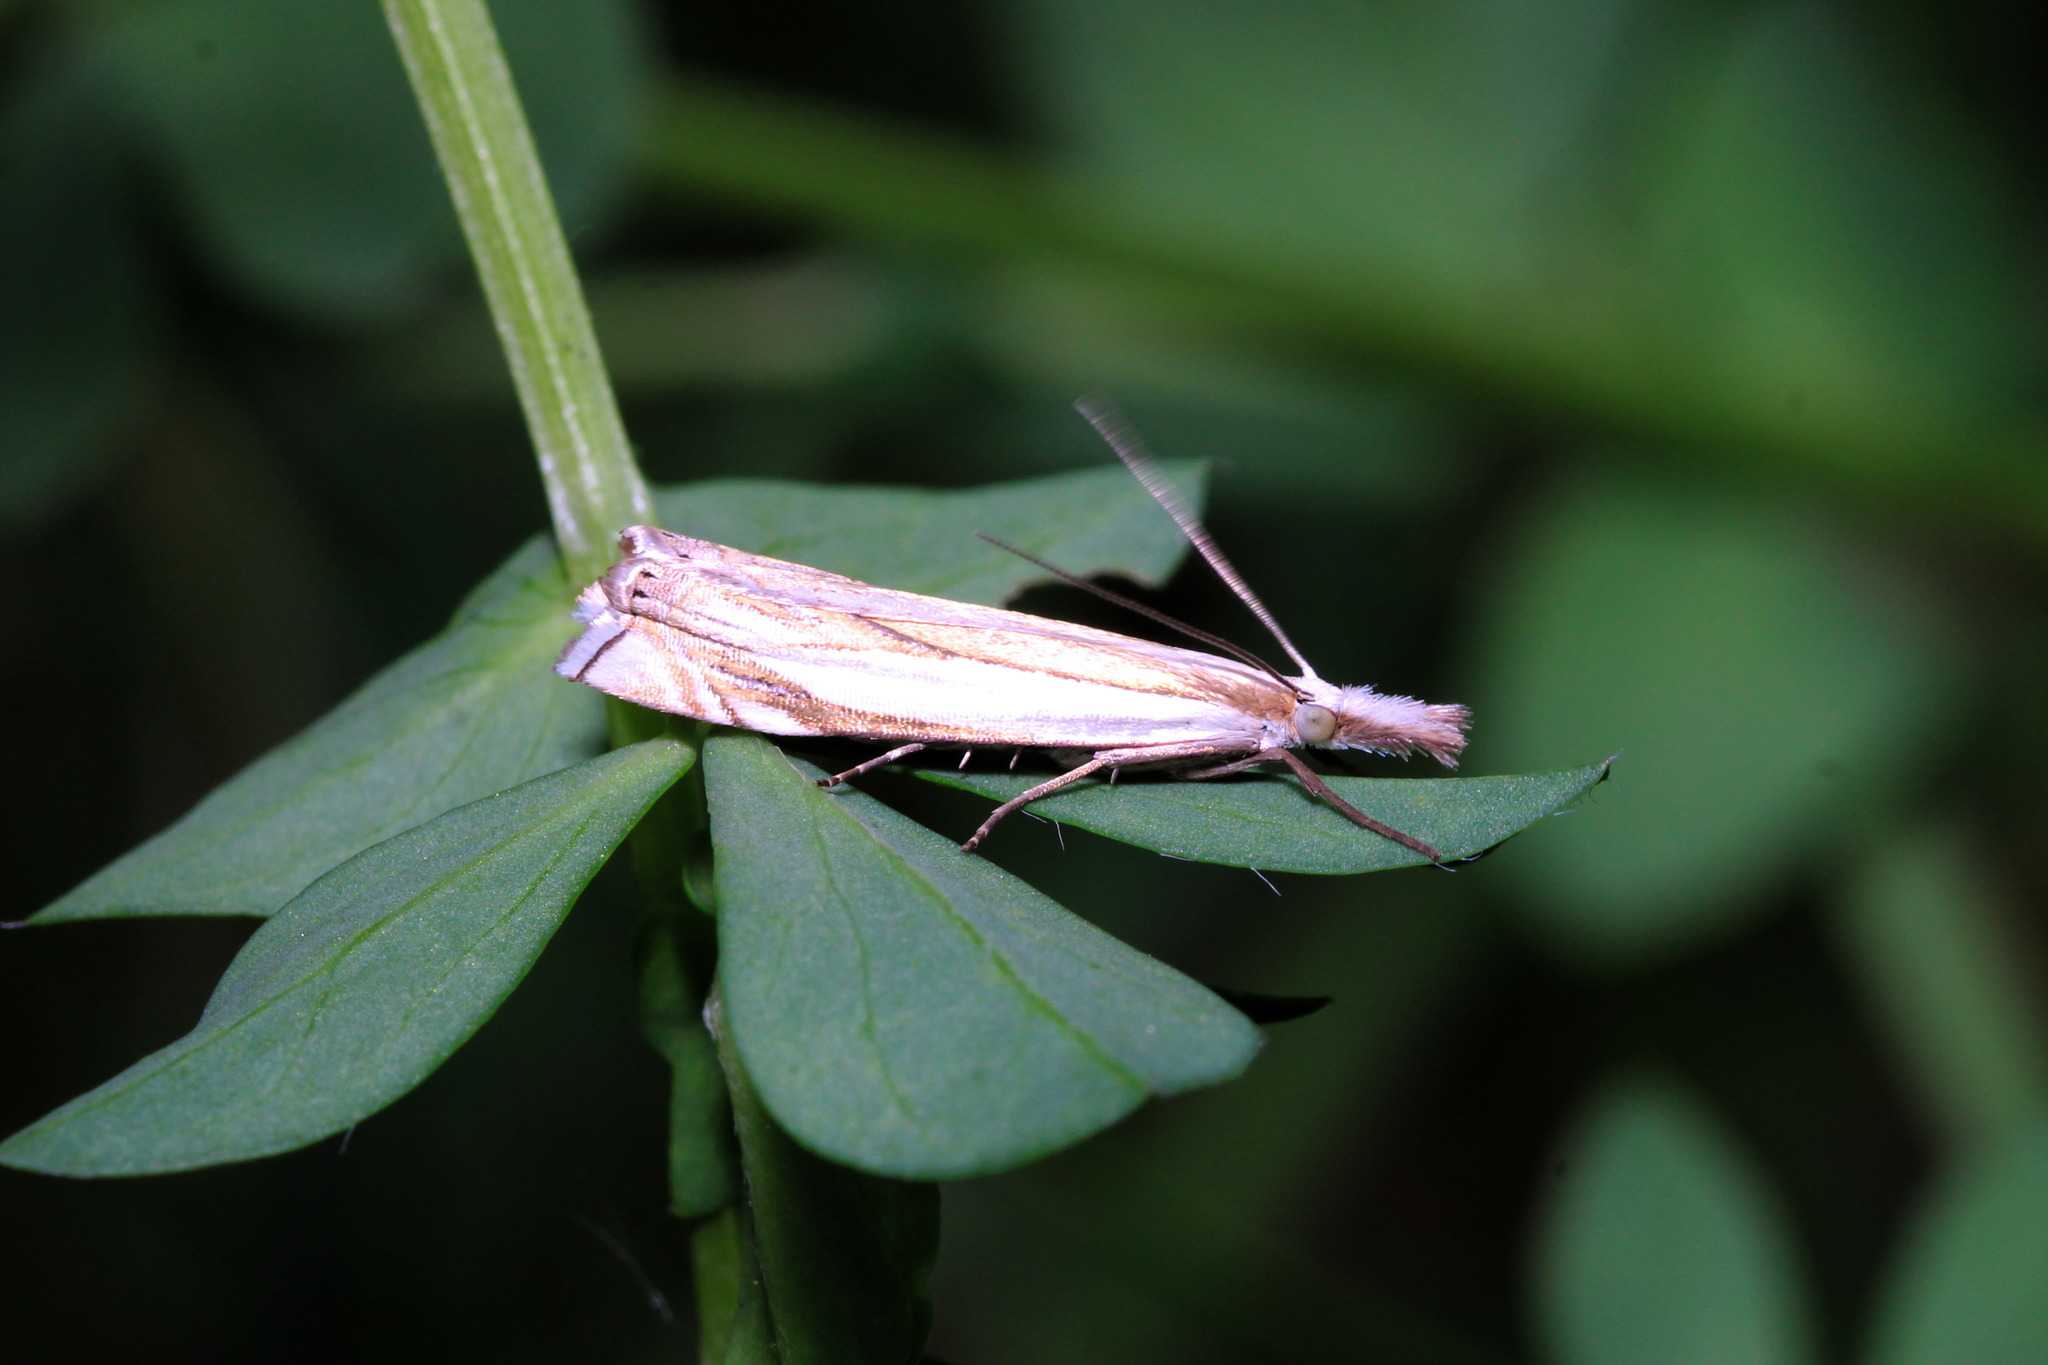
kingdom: Animalia
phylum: Arthropoda
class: Insecta
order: Lepidoptera
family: Crambidae
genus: Crambus
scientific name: Crambus pascuella
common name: Inlaid grass-veneer
